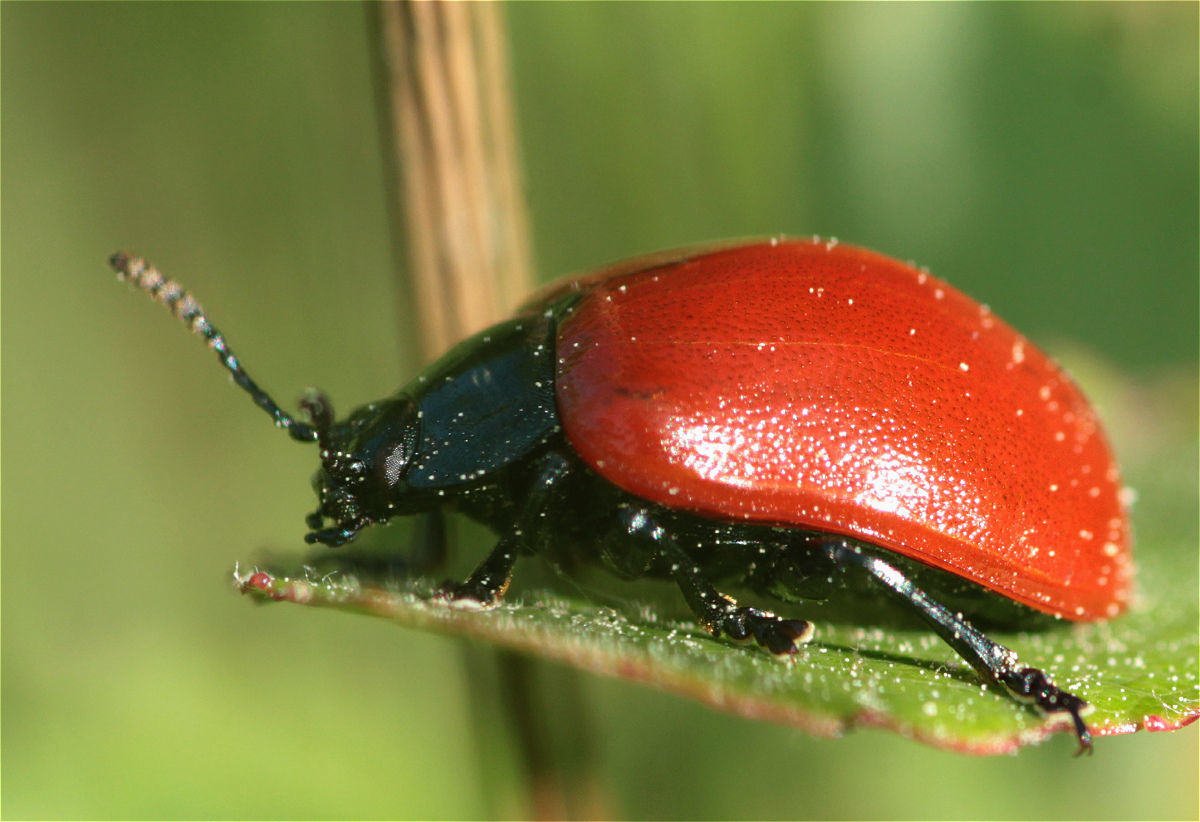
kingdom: Animalia
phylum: Arthropoda
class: Insecta
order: Coleoptera
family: Chrysomelidae
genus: Chrysomela
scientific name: Chrysomela populi
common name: Red poplar leaf beetle
